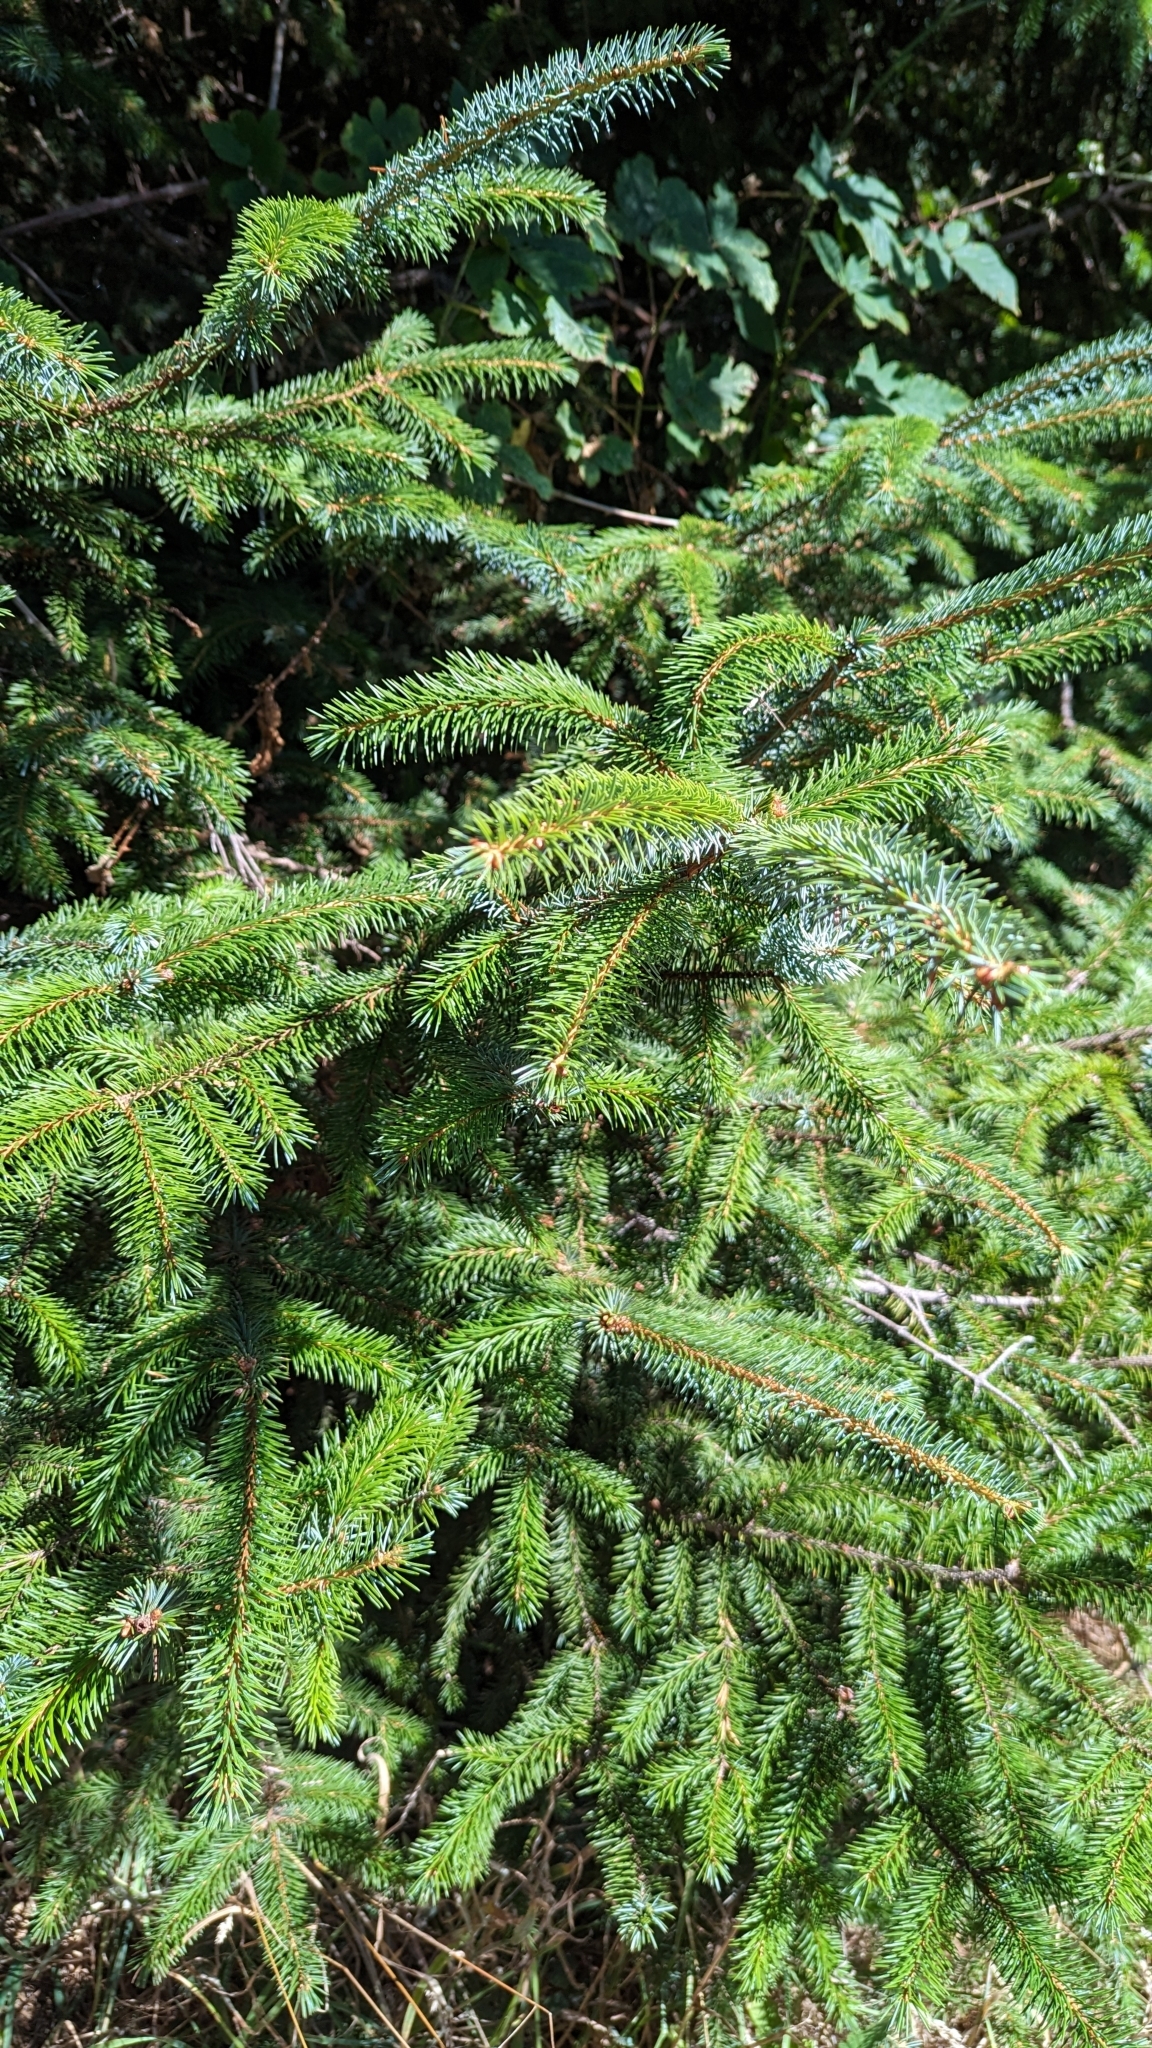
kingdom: Plantae
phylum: Tracheophyta
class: Pinopsida
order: Pinales
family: Pinaceae
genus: Picea
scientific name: Picea sitchensis
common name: Sitka spruce
